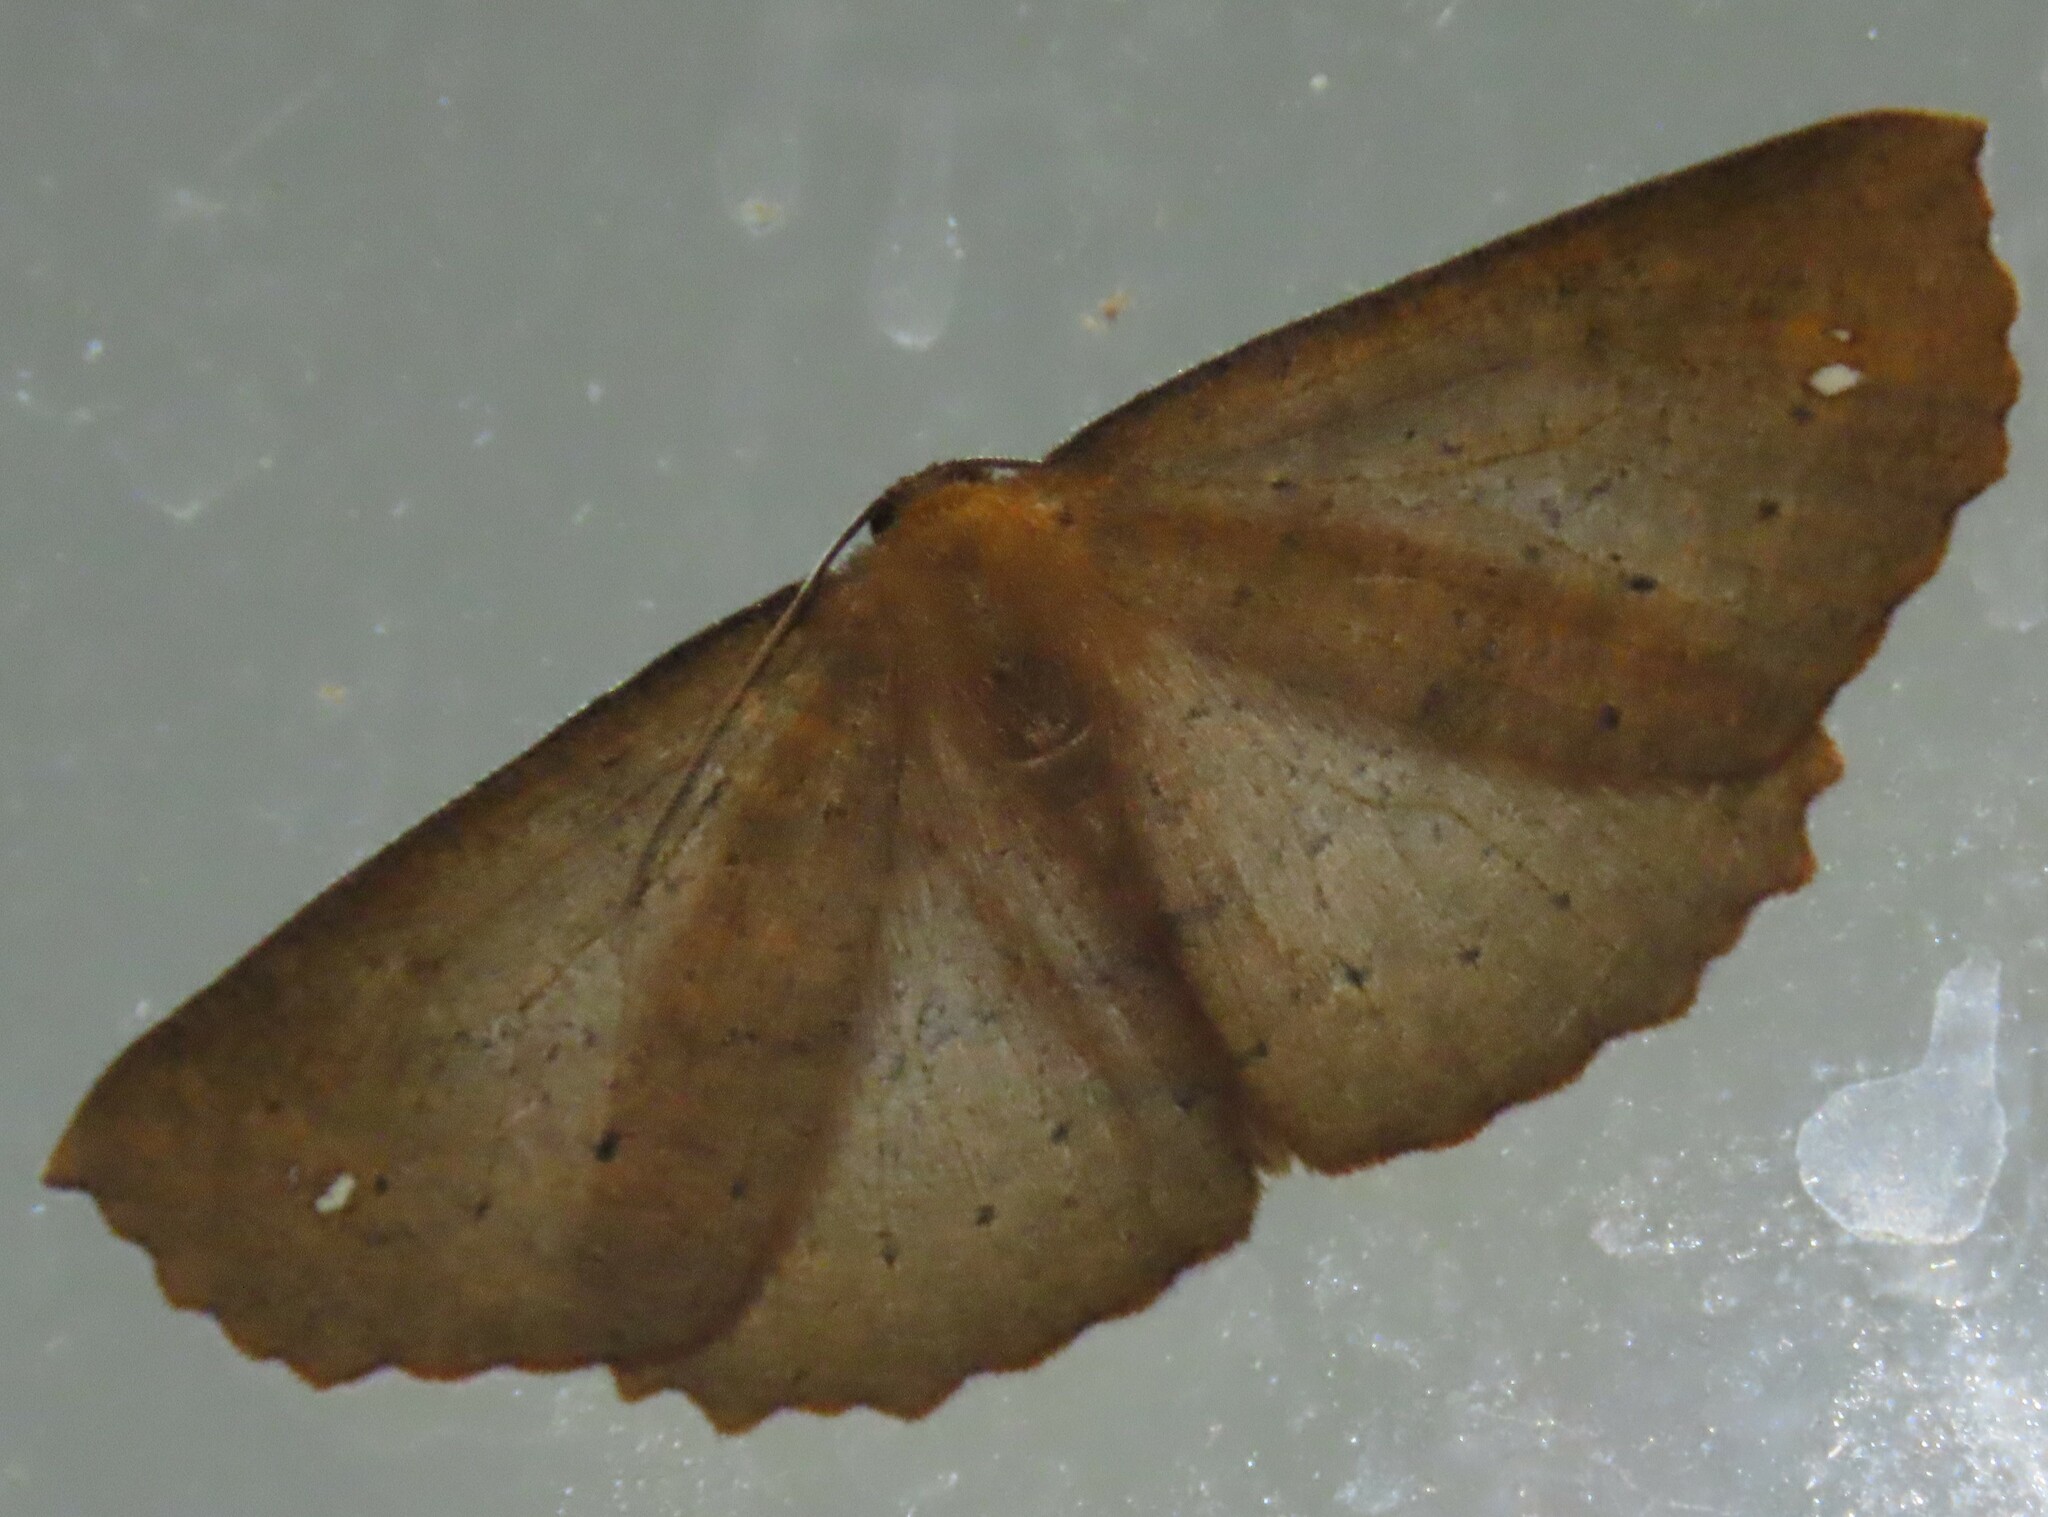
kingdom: Animalia
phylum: Arthropoda
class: Insecta
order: Lepidoptera
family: Geometridae
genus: Xyridacma
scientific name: Xyridacma alectoraria
